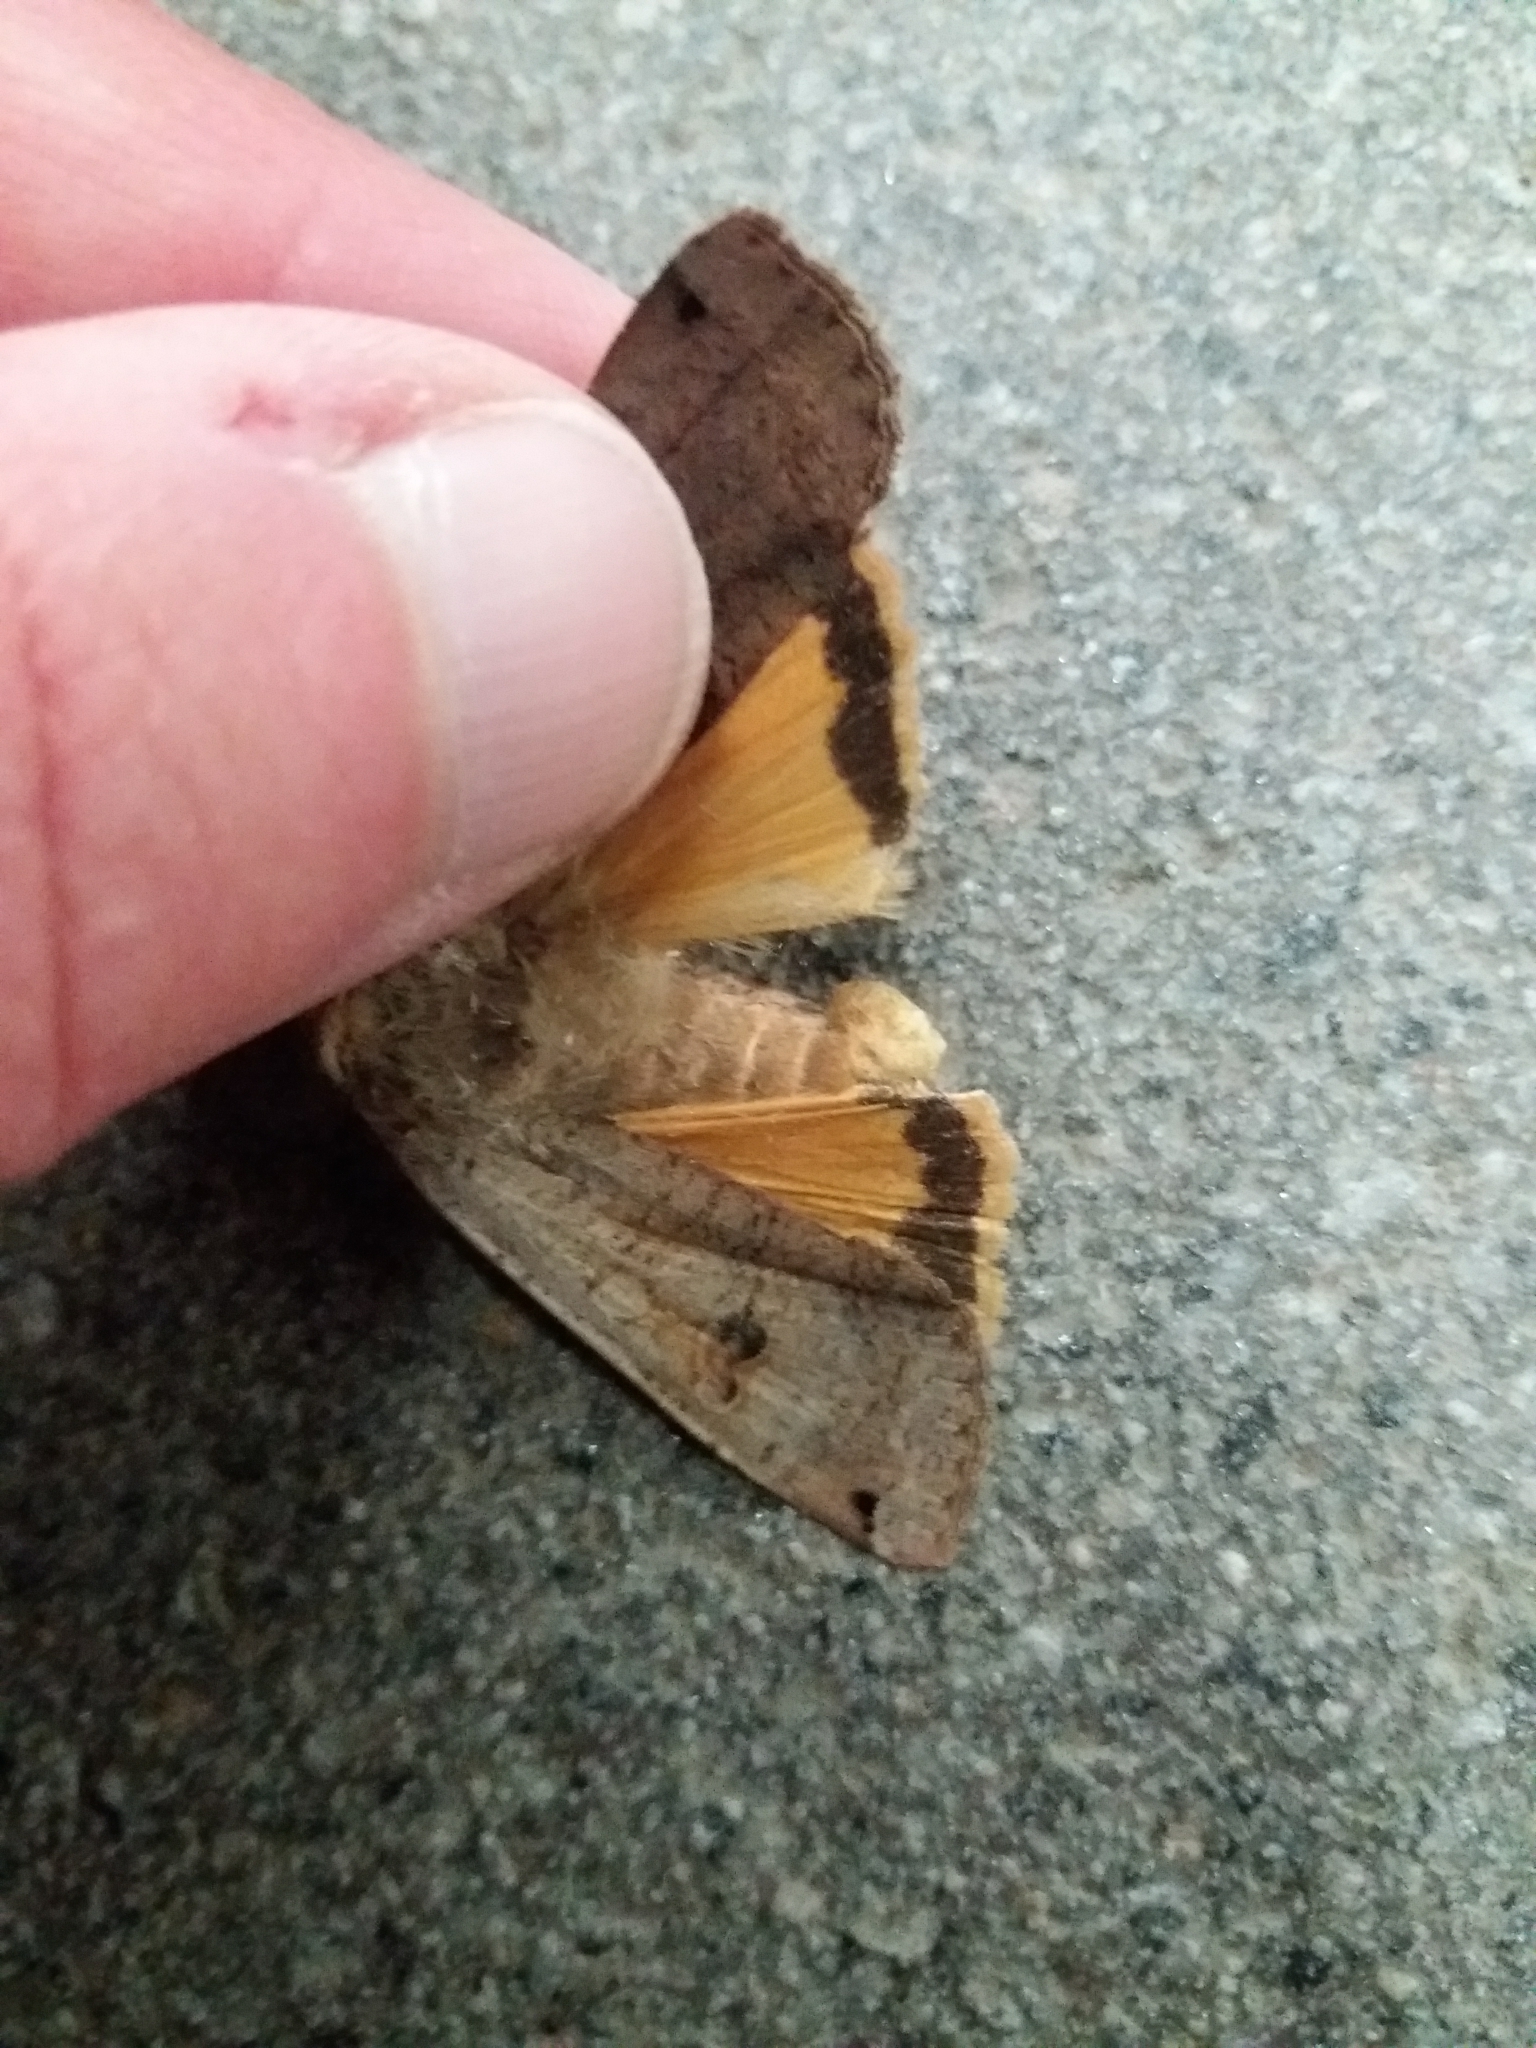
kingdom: Animalia
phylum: Arthropoda
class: Insecta
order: Lepidoptera
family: Noctuidae
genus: Noctua
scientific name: Noctua pronuba
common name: Large yellow underwing
